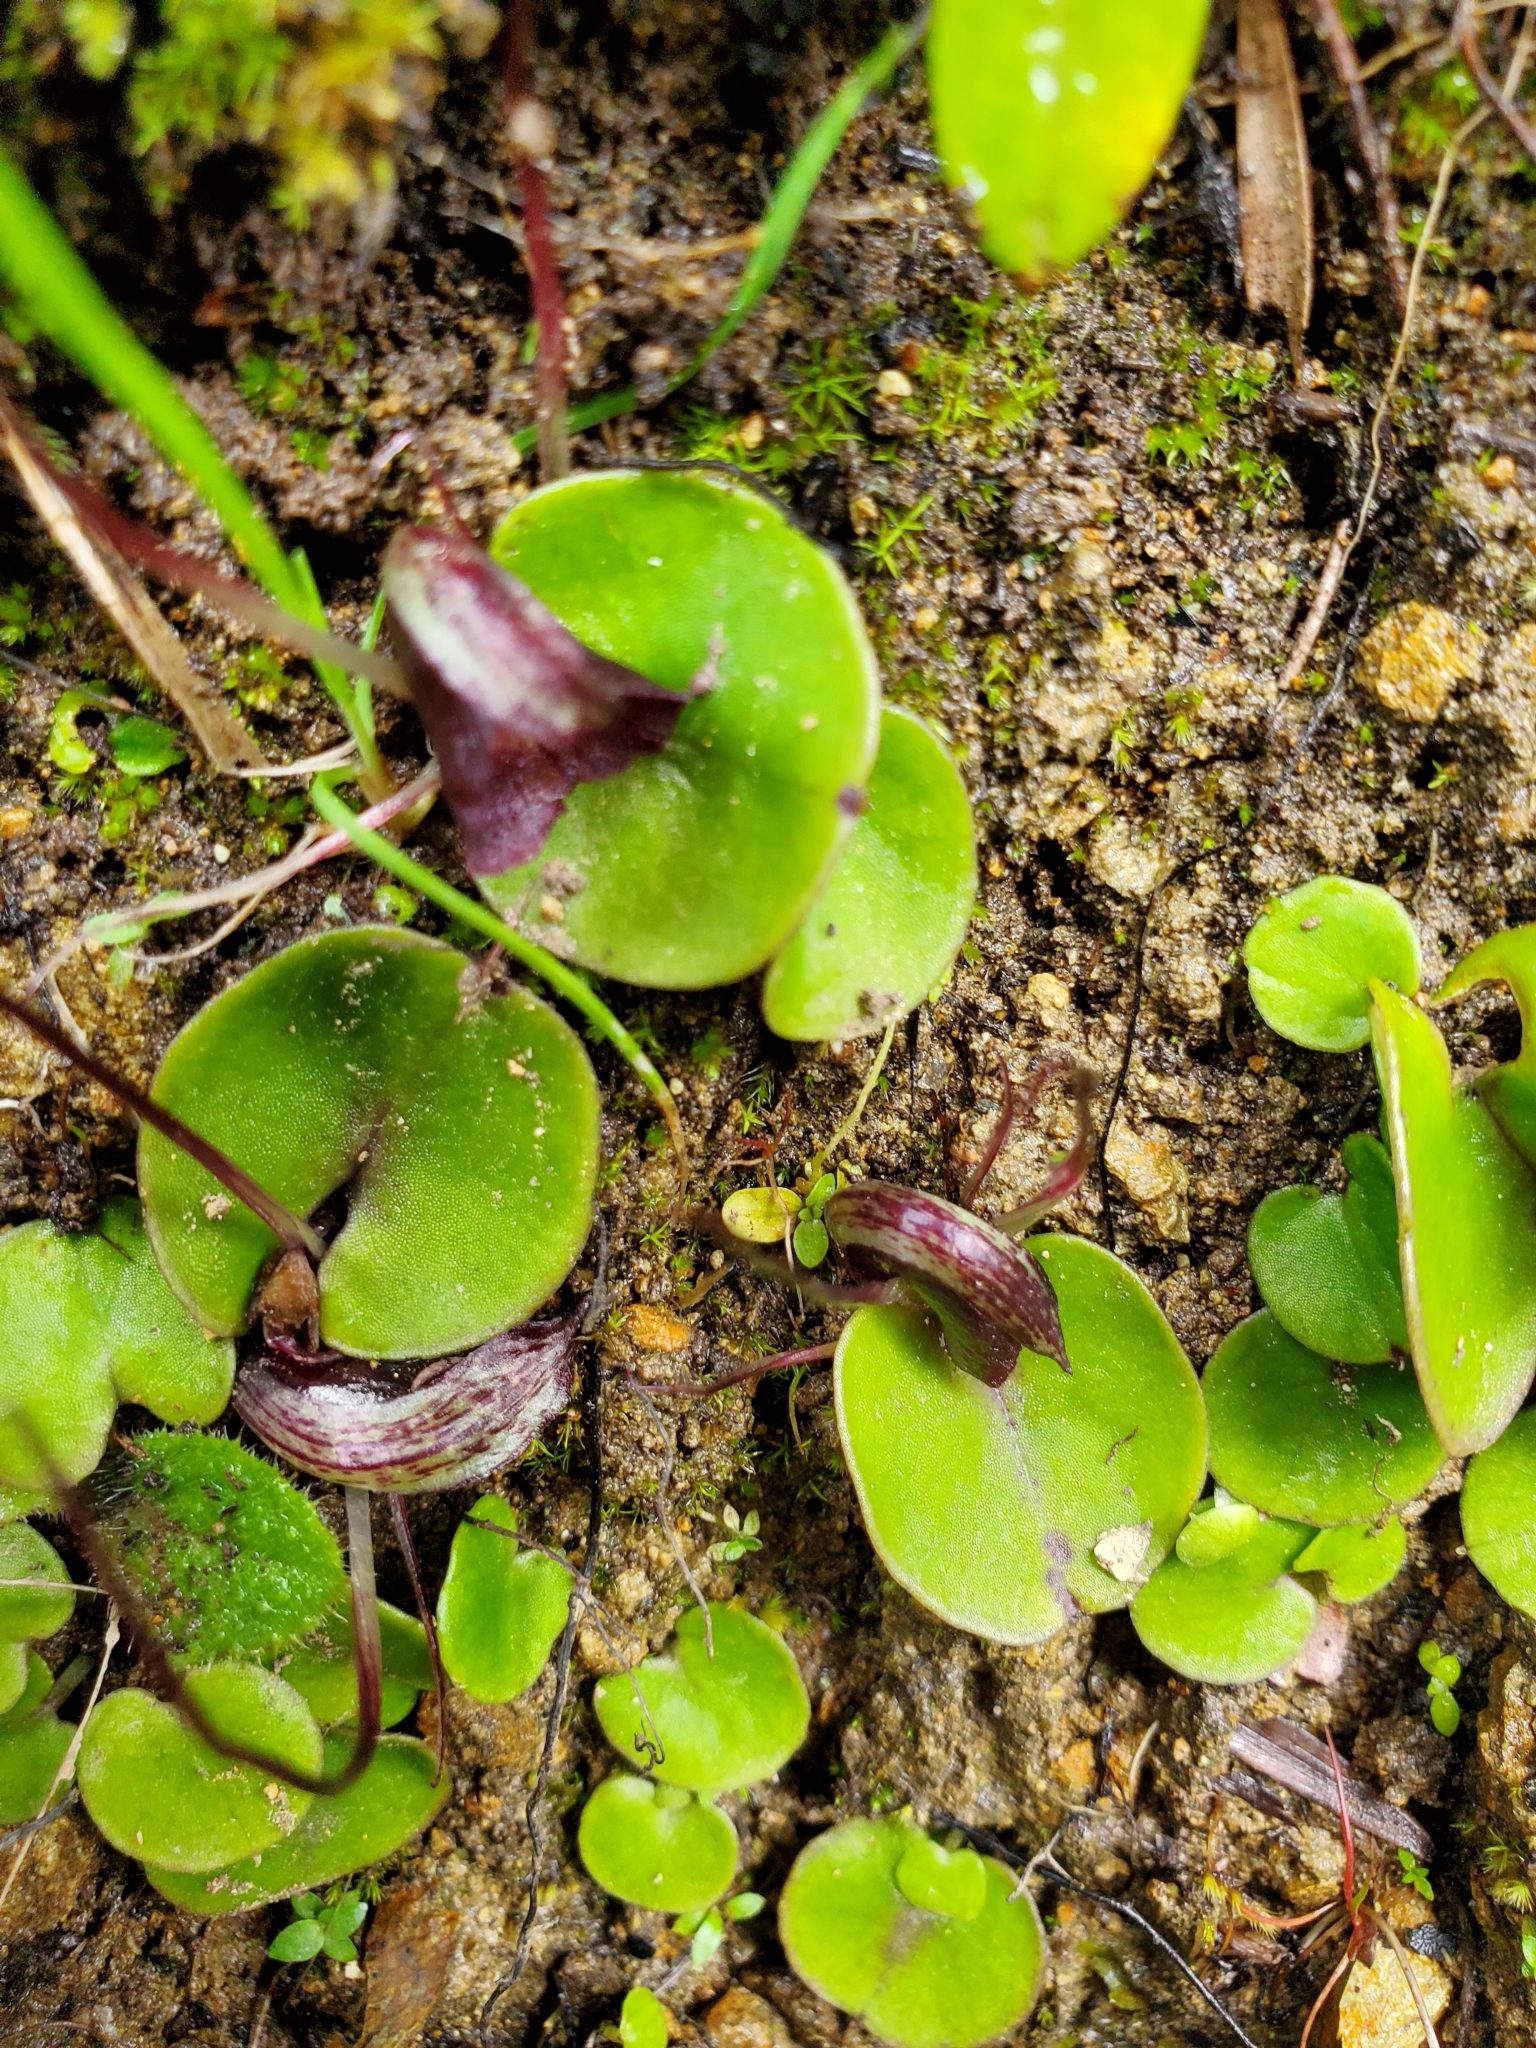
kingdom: Plantae
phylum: Tracheophyta
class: Liliopsida
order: Asparagales
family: Orchidaceae
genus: Corybas
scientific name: Corybas macranthus
